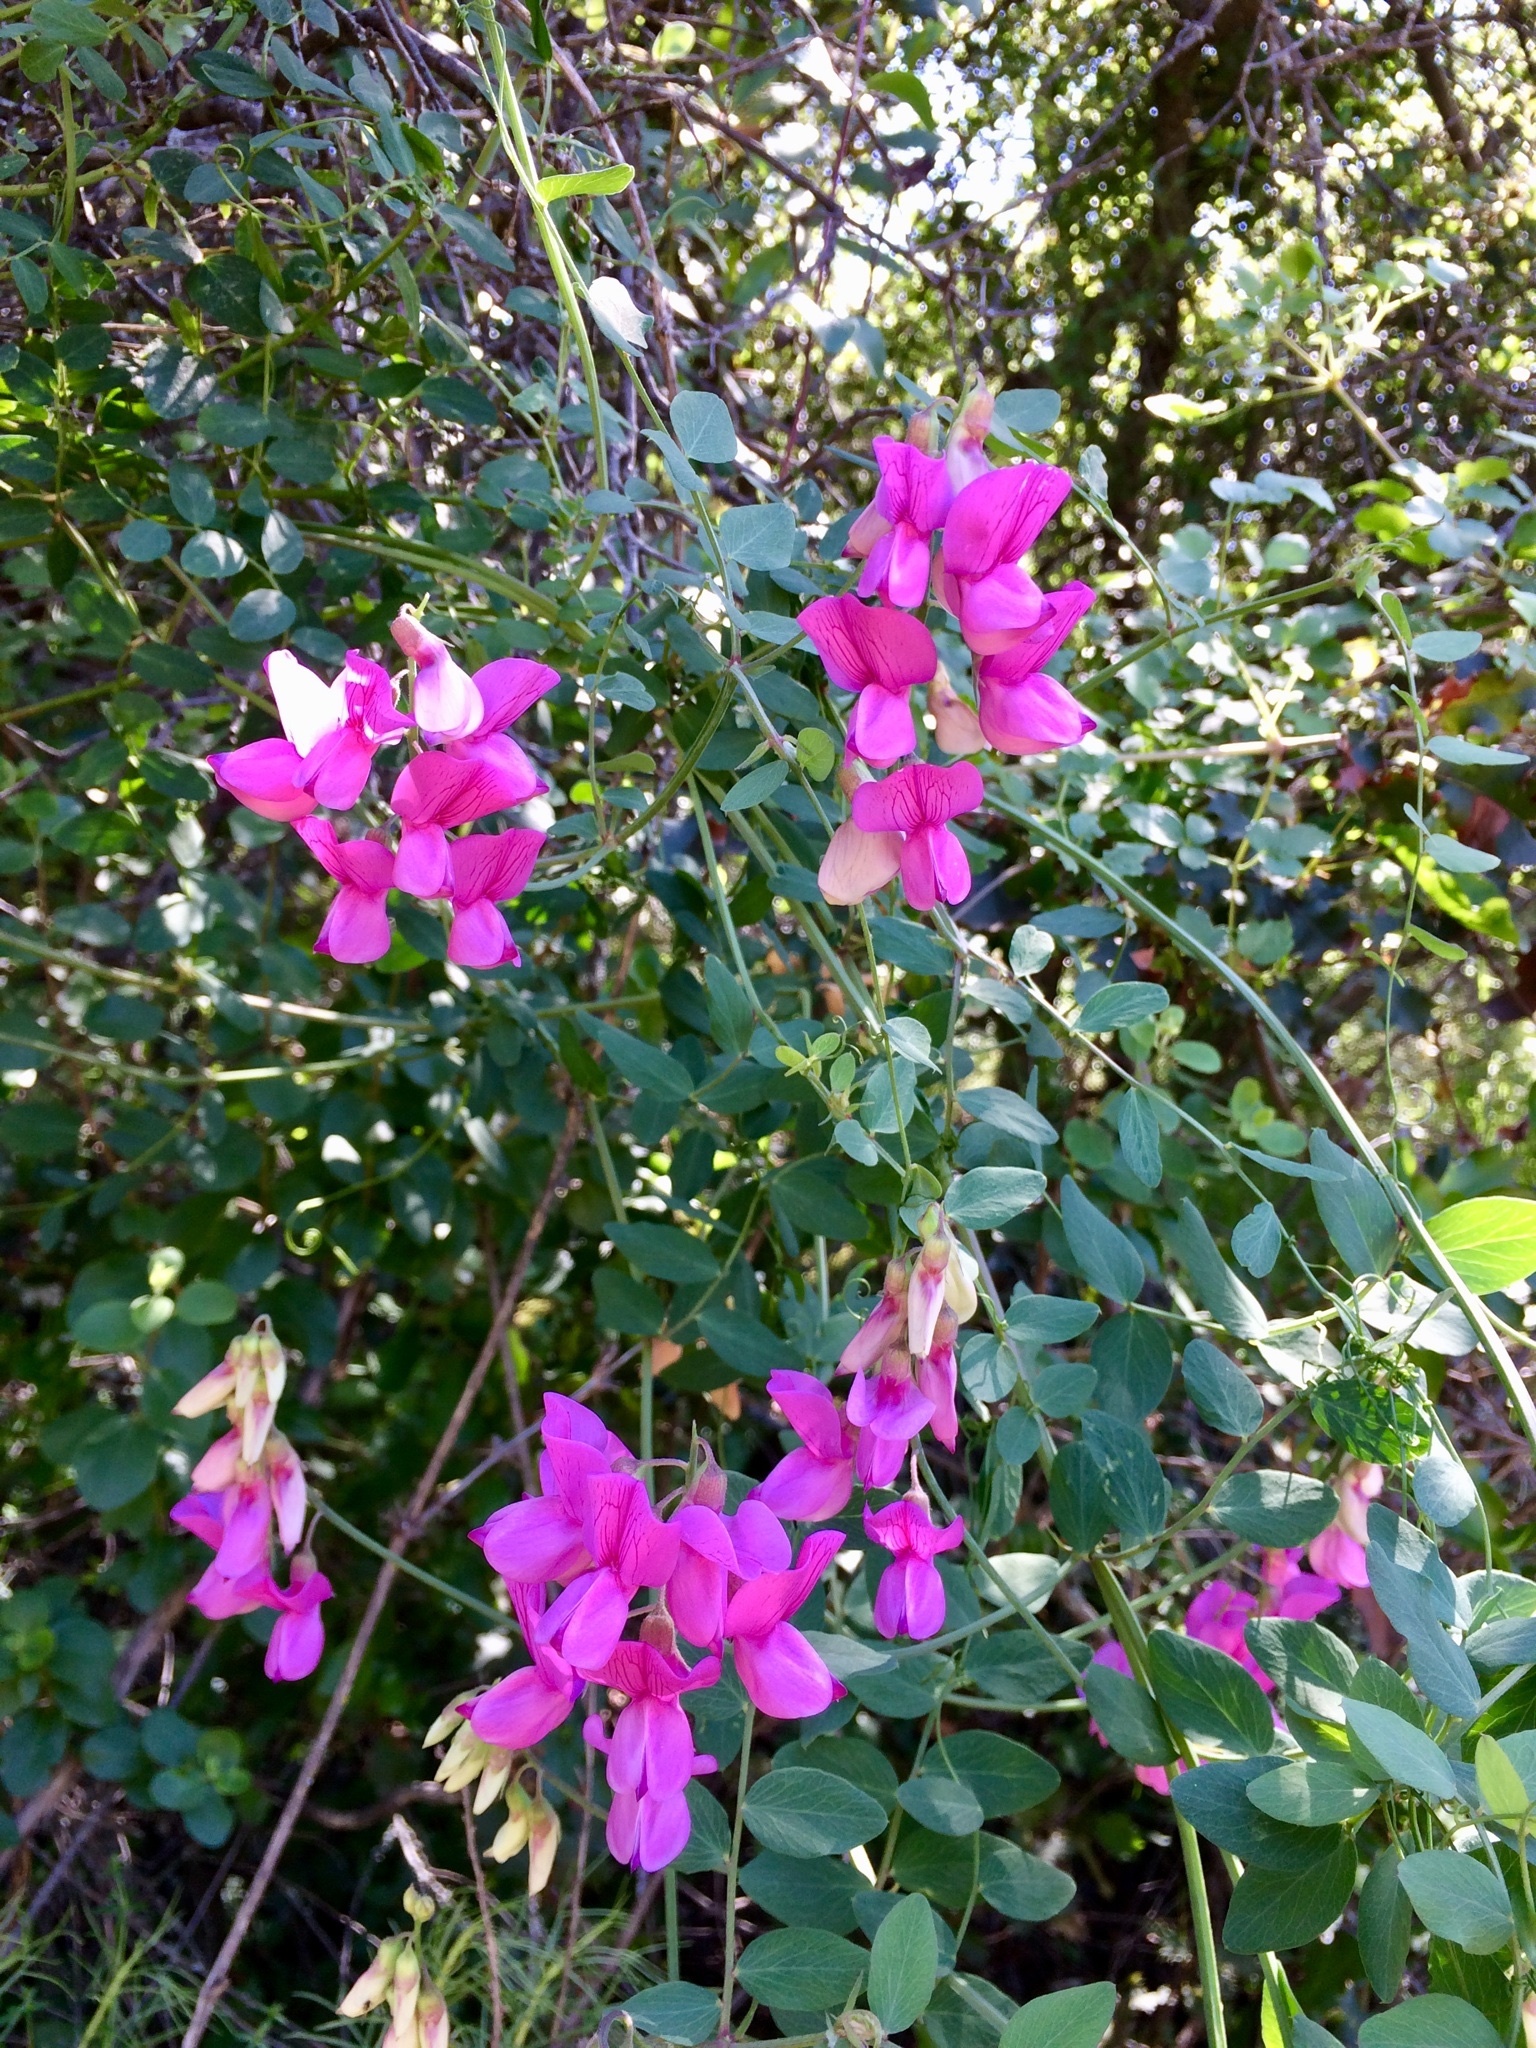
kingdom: Plantae
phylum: Tracheophyta
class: Magnoliopsida
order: Fabales
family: Fabaceae
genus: Lathyrus
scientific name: Lathyrus vestitus
